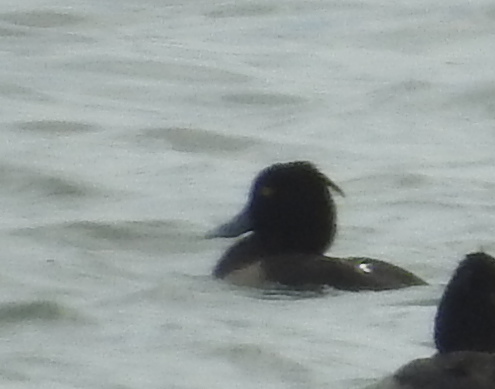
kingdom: Animalia
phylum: Chordata
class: Aves
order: Anseriformes
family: Anatidae
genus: Aythya
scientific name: Aythya fuligula
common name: Tufted duck
